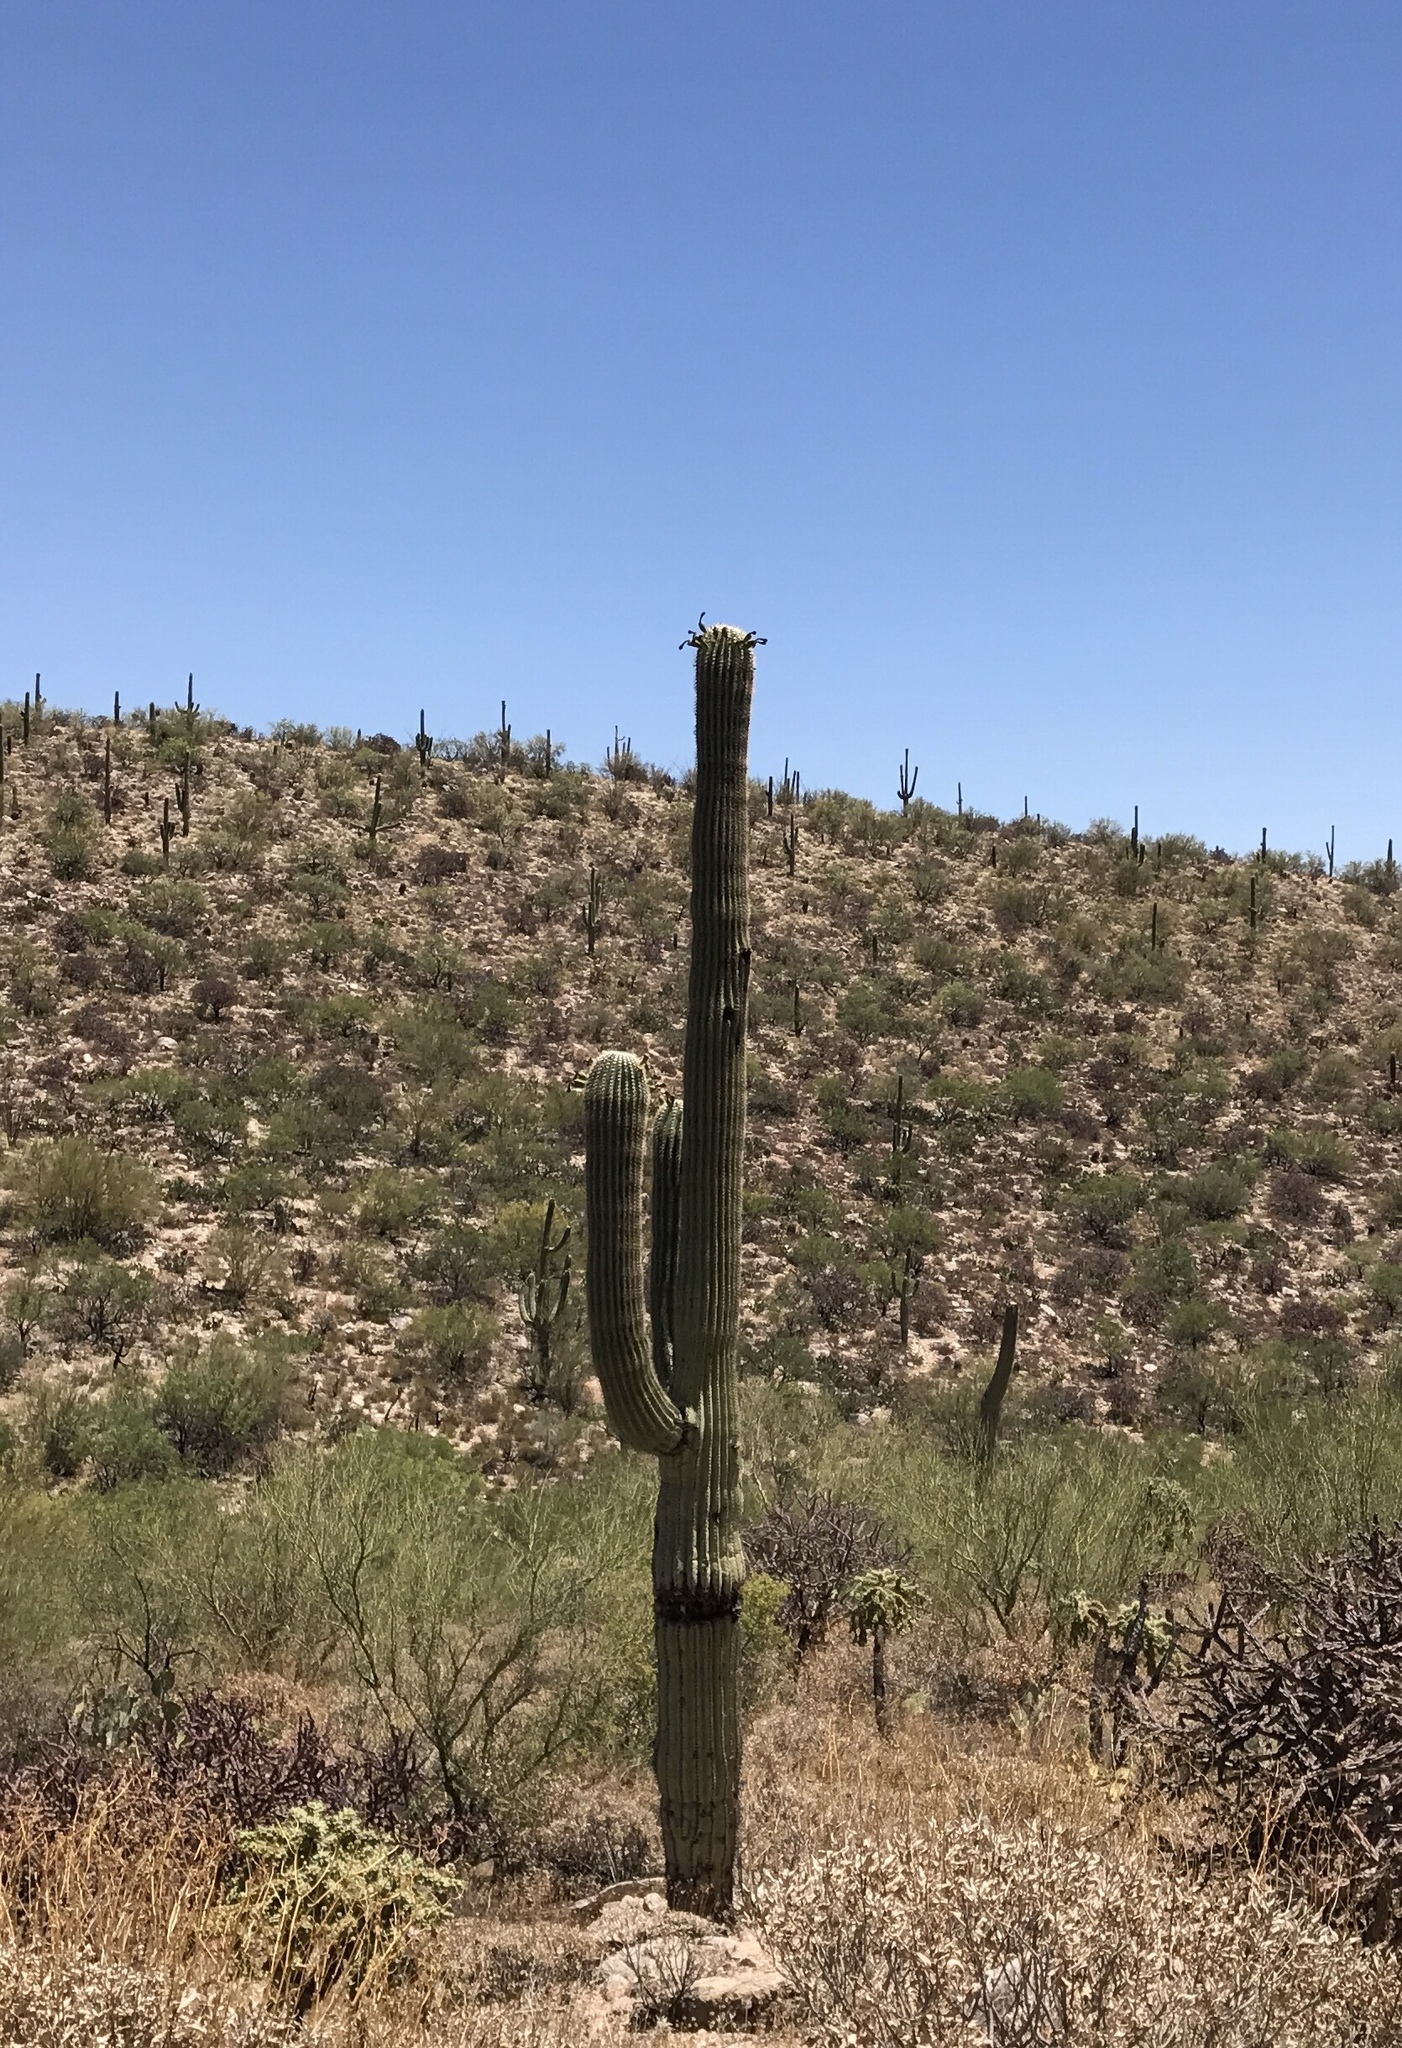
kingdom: Plantae
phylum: Tracheophyta
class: Magnoliopsida
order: Caryophyllales
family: Cactaceae
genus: Carnegiea
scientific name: Carnegiea gigantea
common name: Saguaro
